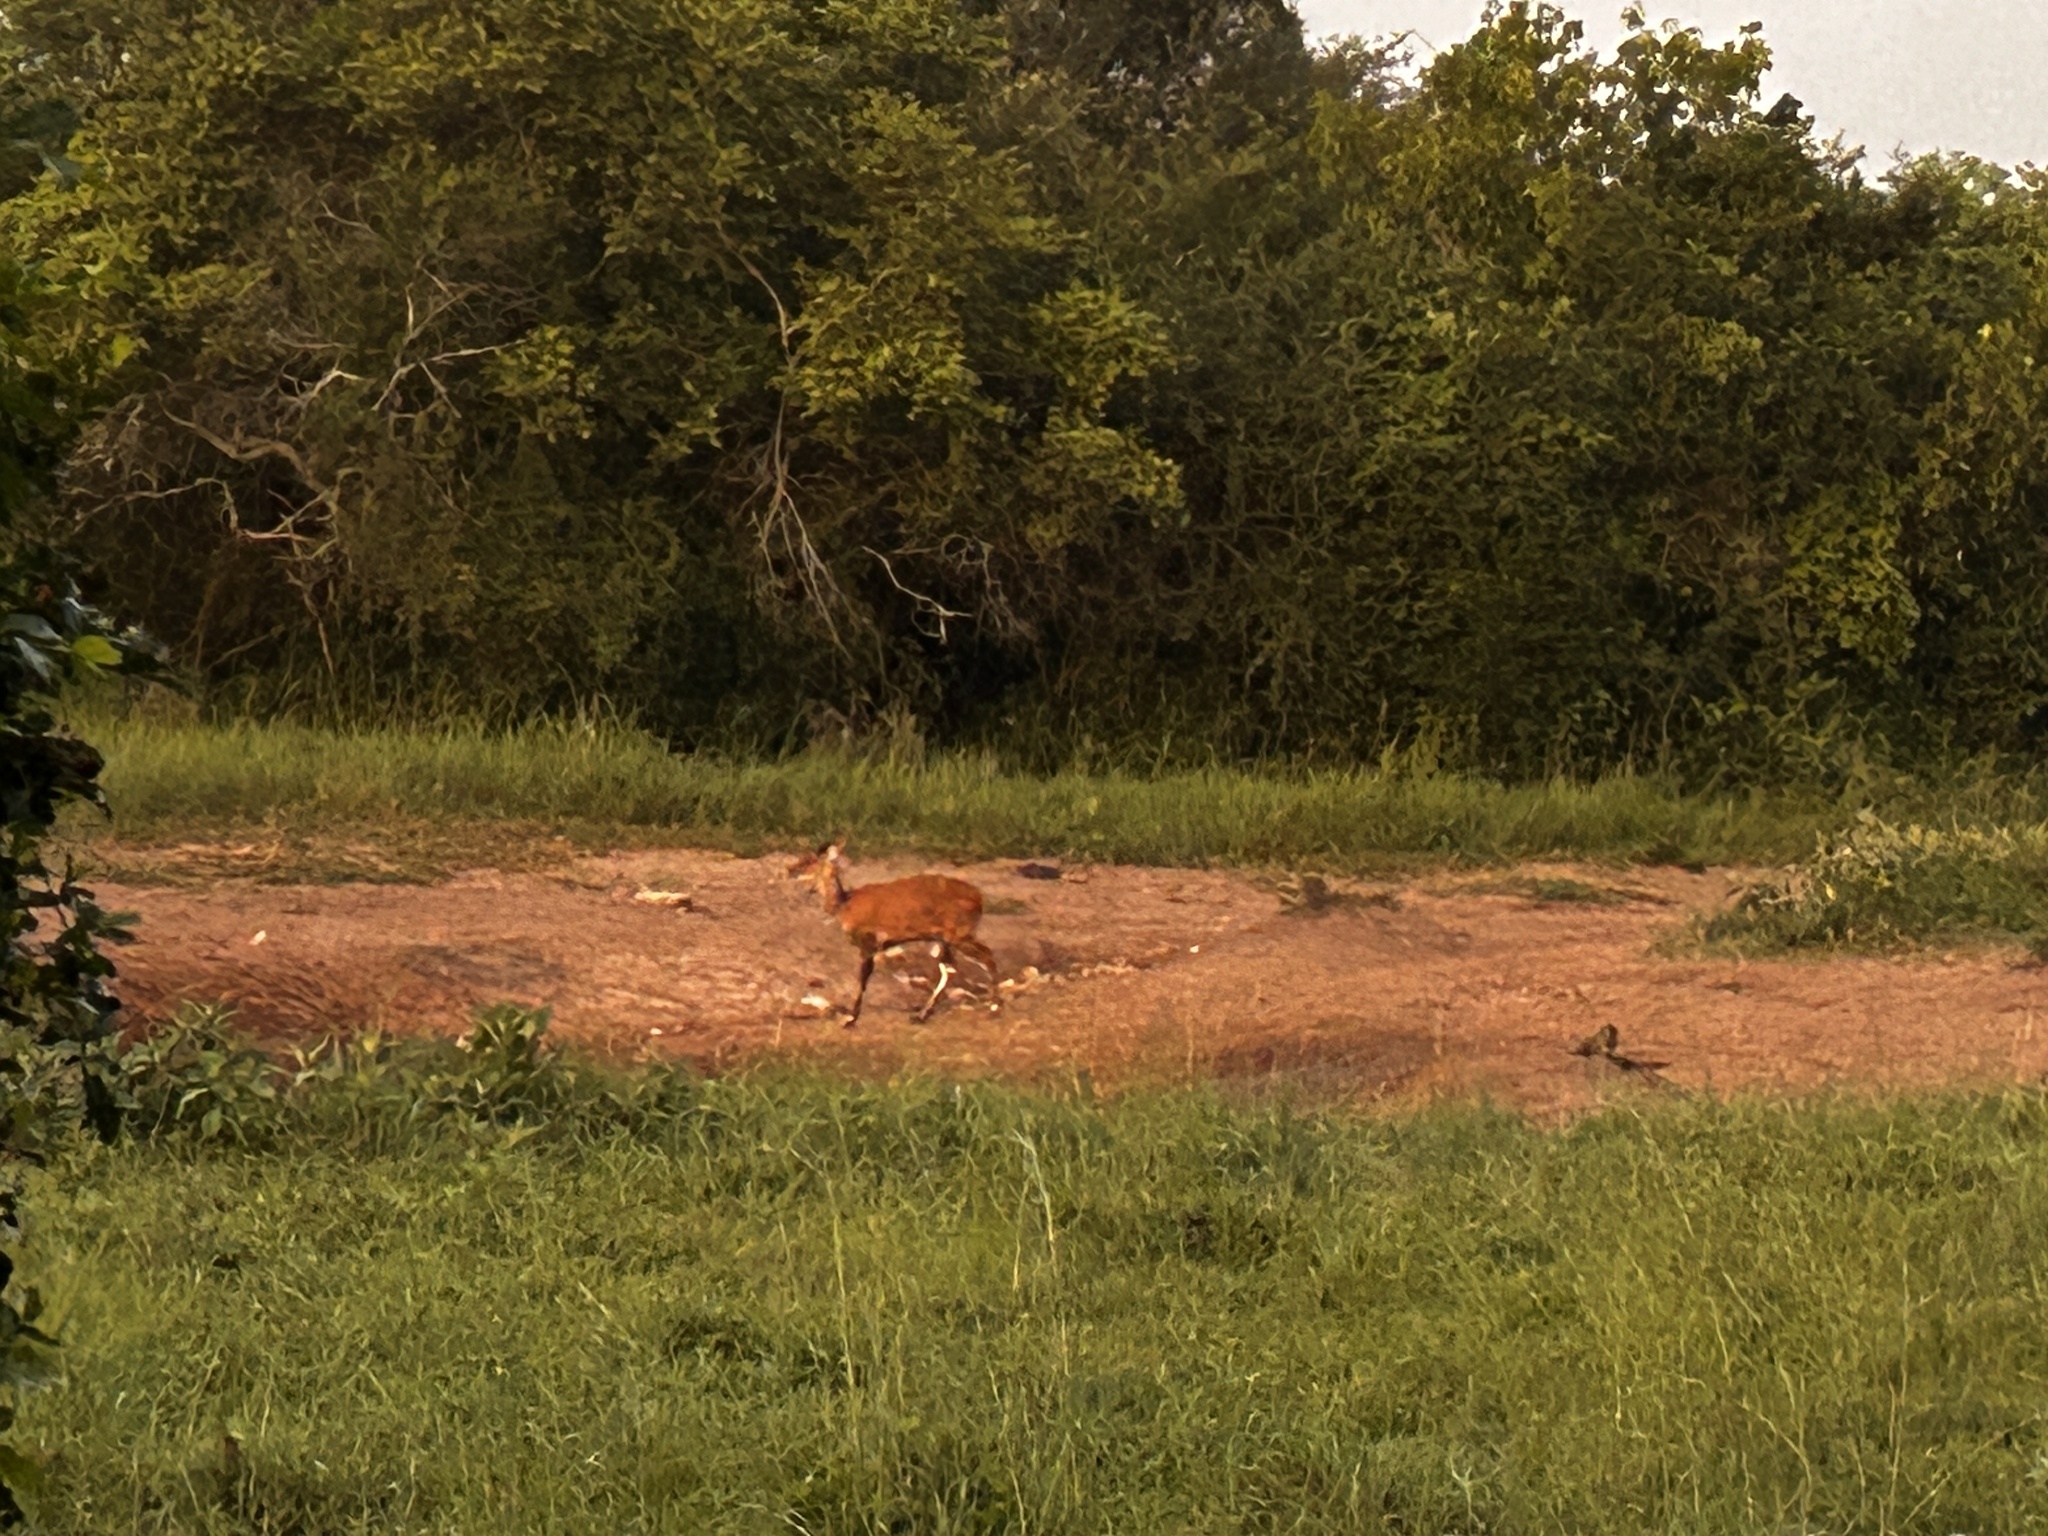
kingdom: Animalia
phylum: Chordata
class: Mammalia
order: Artiodactyla
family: Bovidae
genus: Tragelaphus
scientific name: Tragelaphus scriptus
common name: Bushbuck
